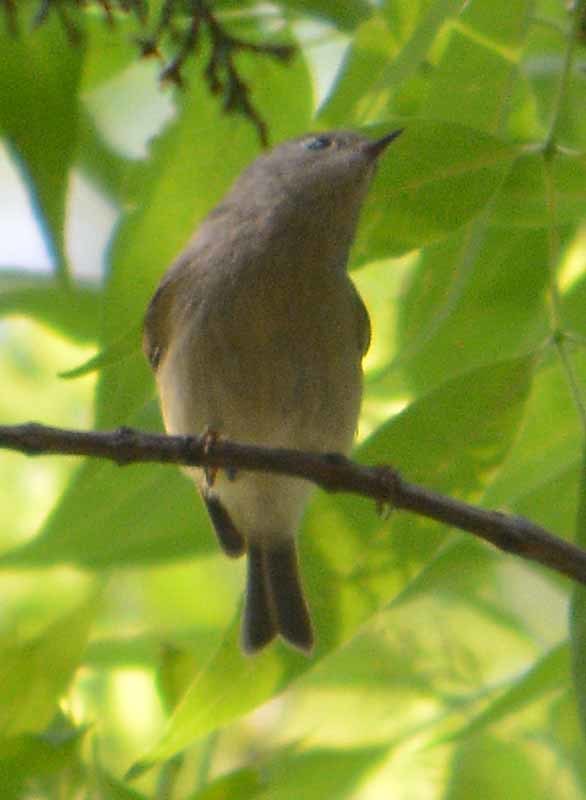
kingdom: Animalia
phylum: Chordata
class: Aves
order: Passeriformes
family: Regulidae
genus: Regulus
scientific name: Regulus calendula
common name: Ruby-crowned kinglet
